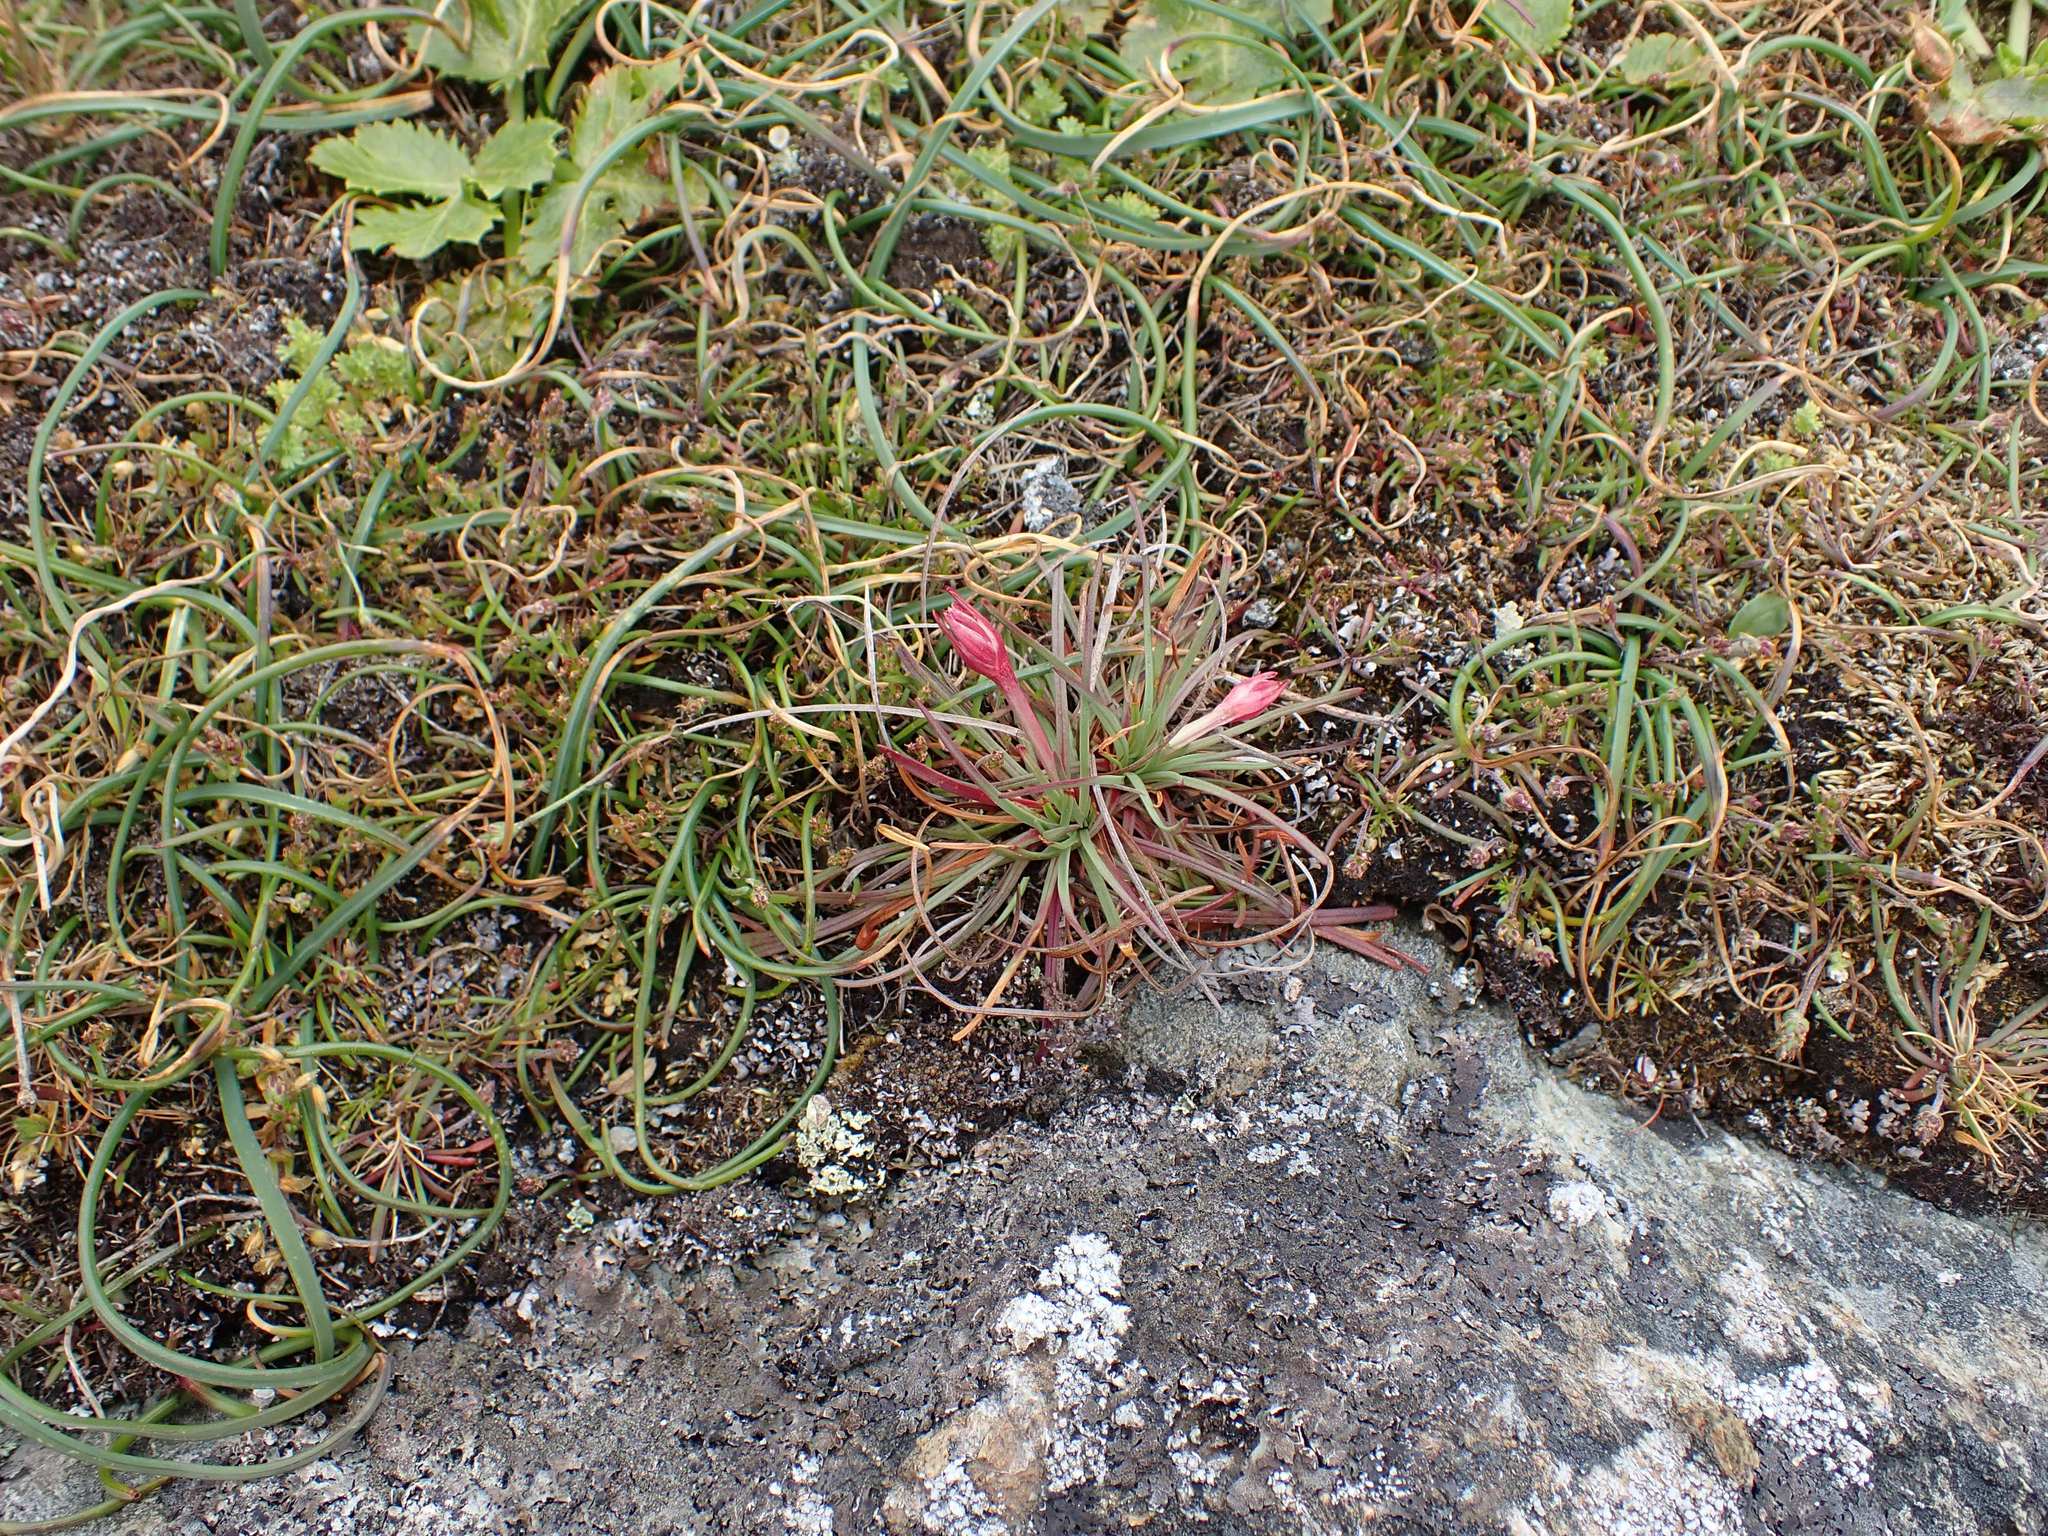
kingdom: Plantae
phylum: Tracheophyta
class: Magnoliopsida
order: Caryophyllales
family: Plumbaginaceae
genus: Armeria
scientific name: Armeria maritima
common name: Thrift
